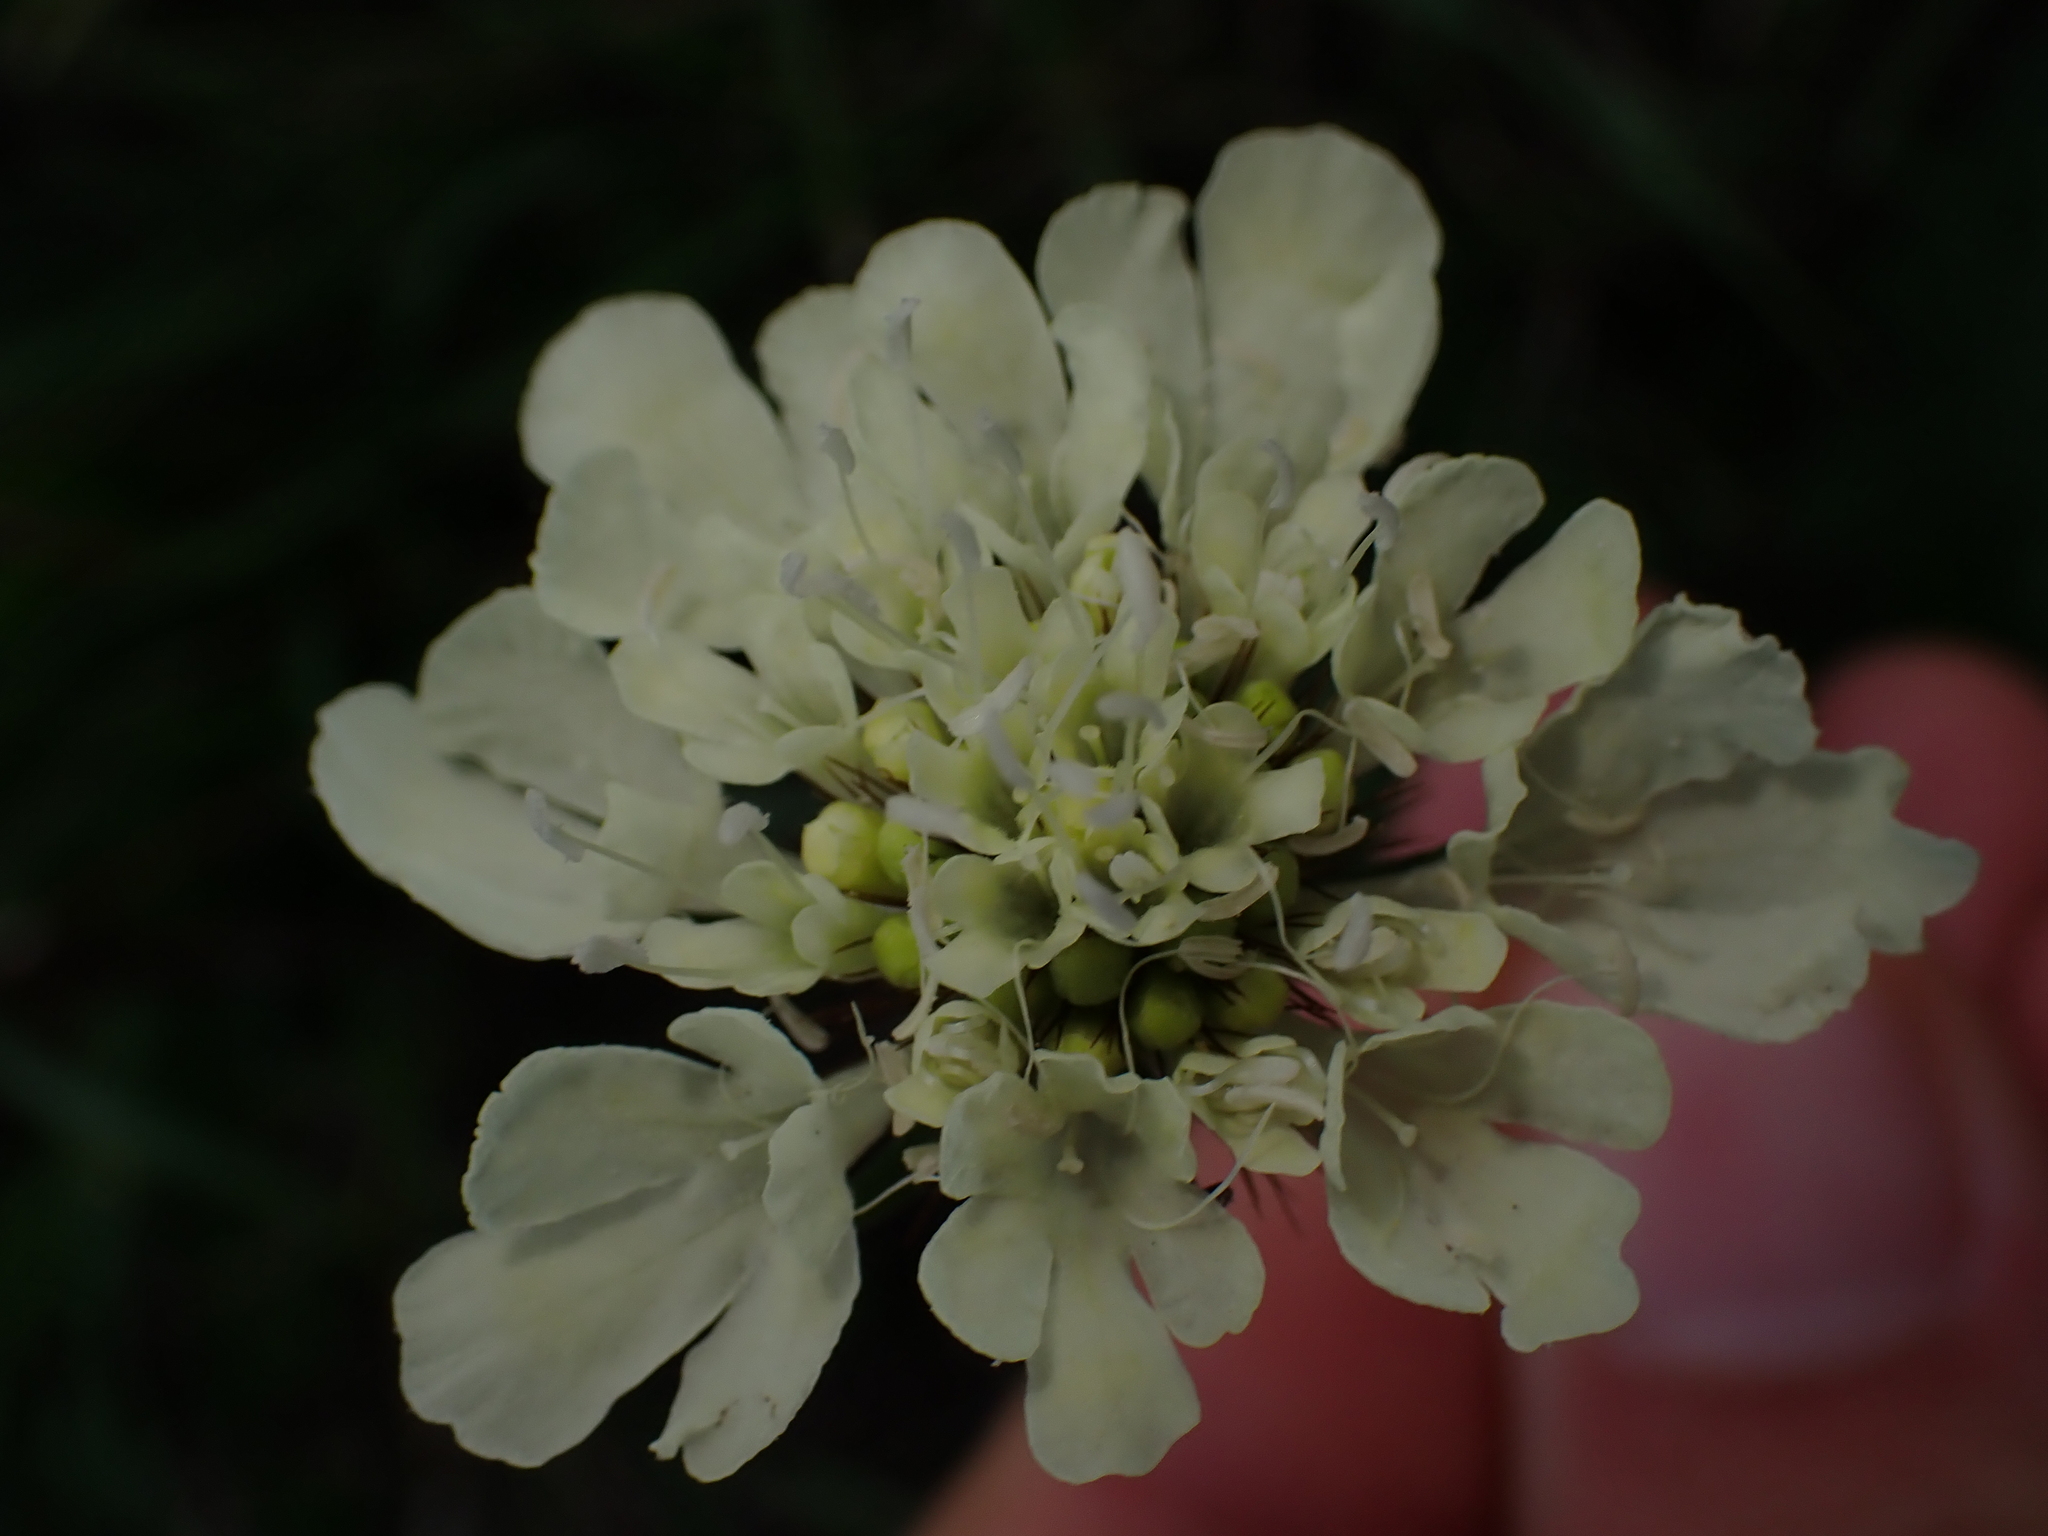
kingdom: Plantae
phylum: Tracheophyta
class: Magnoliopsida
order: Dipsacales
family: Caprifoliaceae
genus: Scabiosa
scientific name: Scabiosa ochroleuca
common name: Cream pincushions
